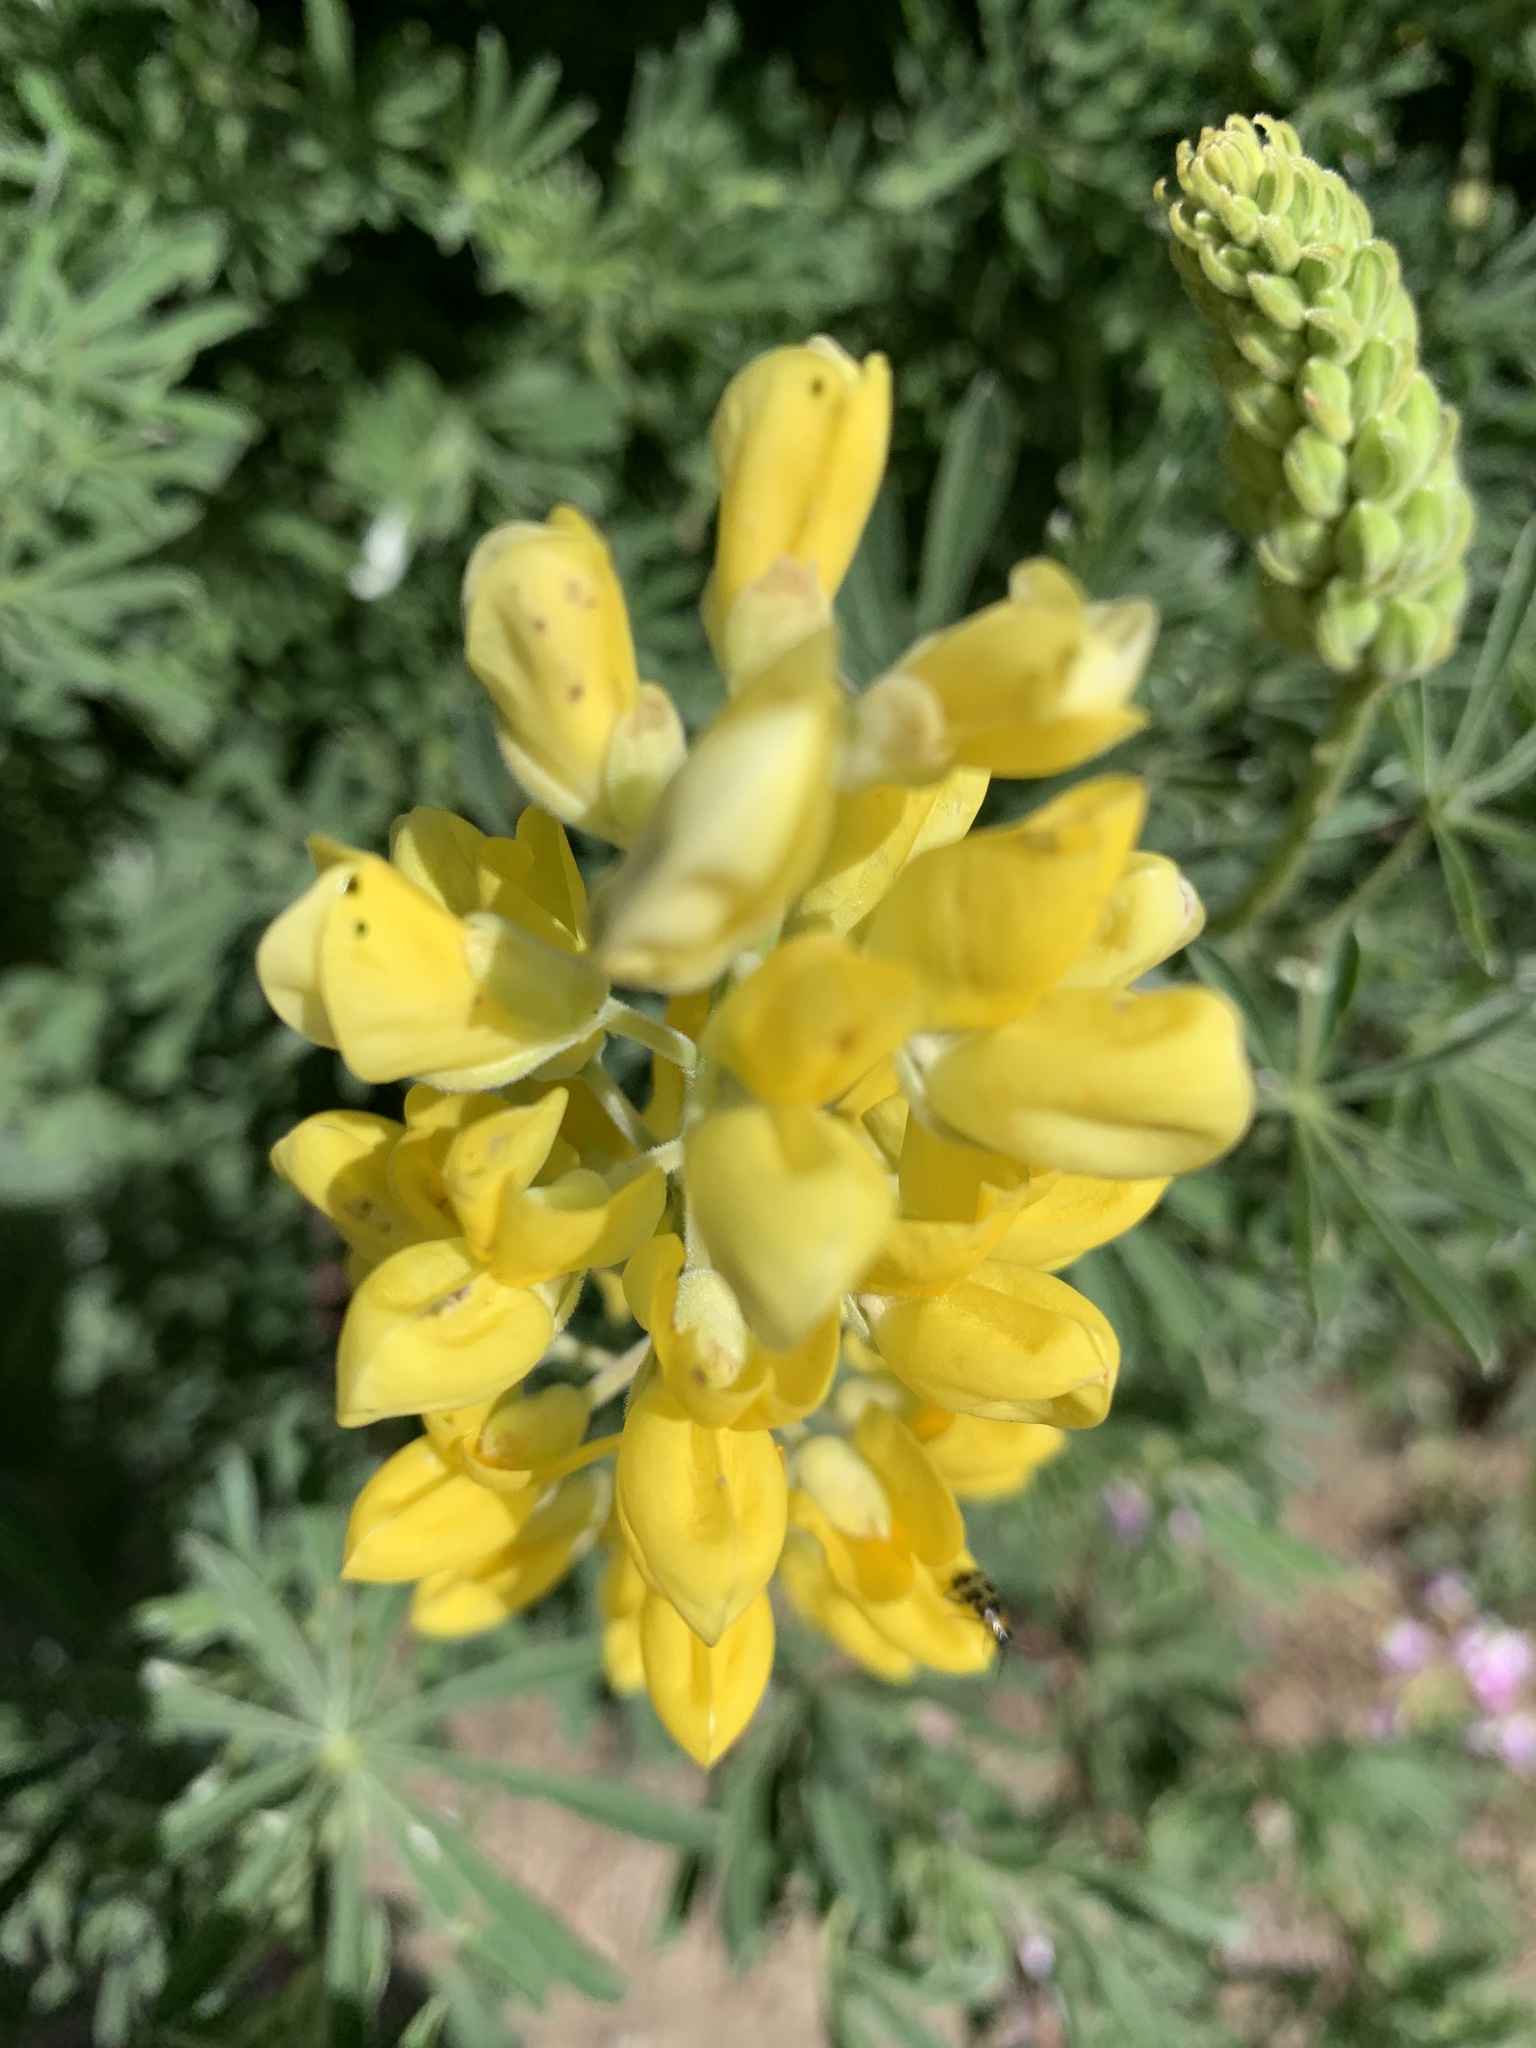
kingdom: Plantae
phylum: Tracheophyta
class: Magnoliopsida
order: Fabales
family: Fabaceae
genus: Lupinus
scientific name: Lupinus arboreus
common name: Yellow bush lupine
